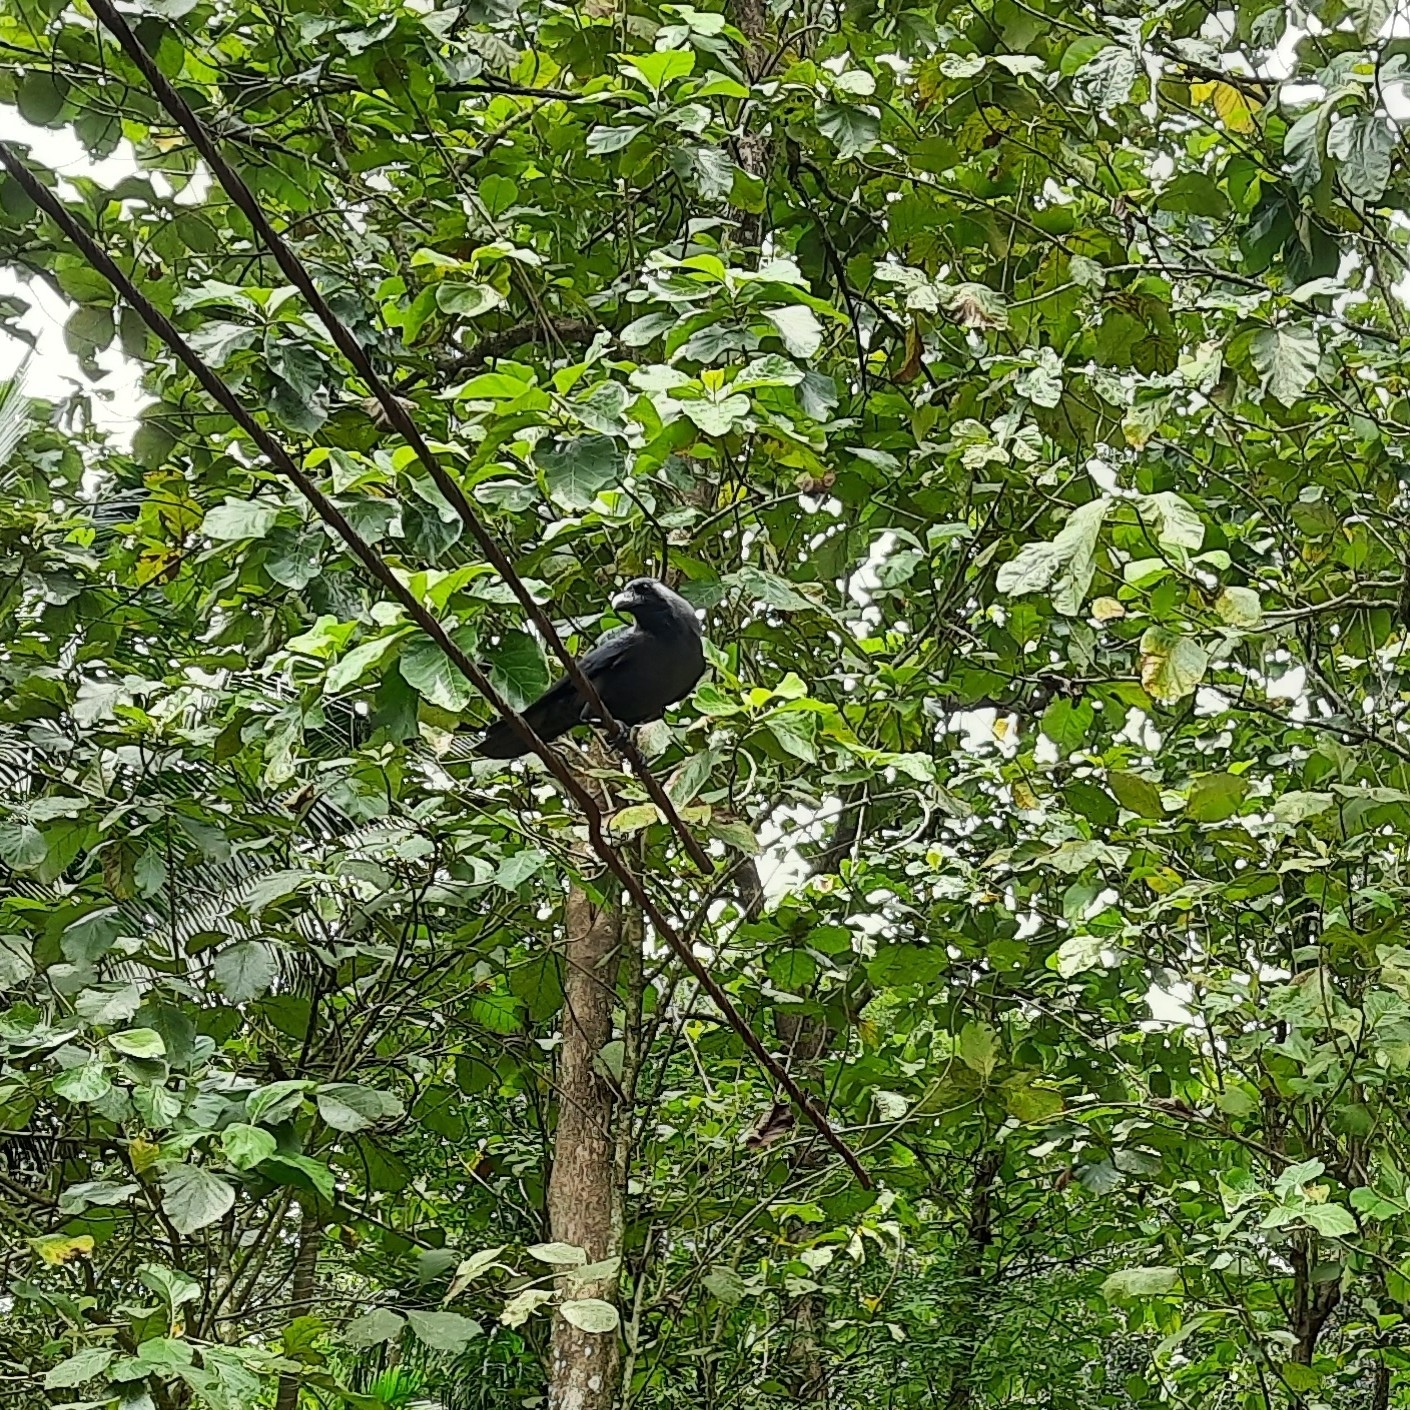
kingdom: Animalia
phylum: Chordata
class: Aves
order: Passeriformes
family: Corvidae
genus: Corvus
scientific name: Corvus splendens
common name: House crow
